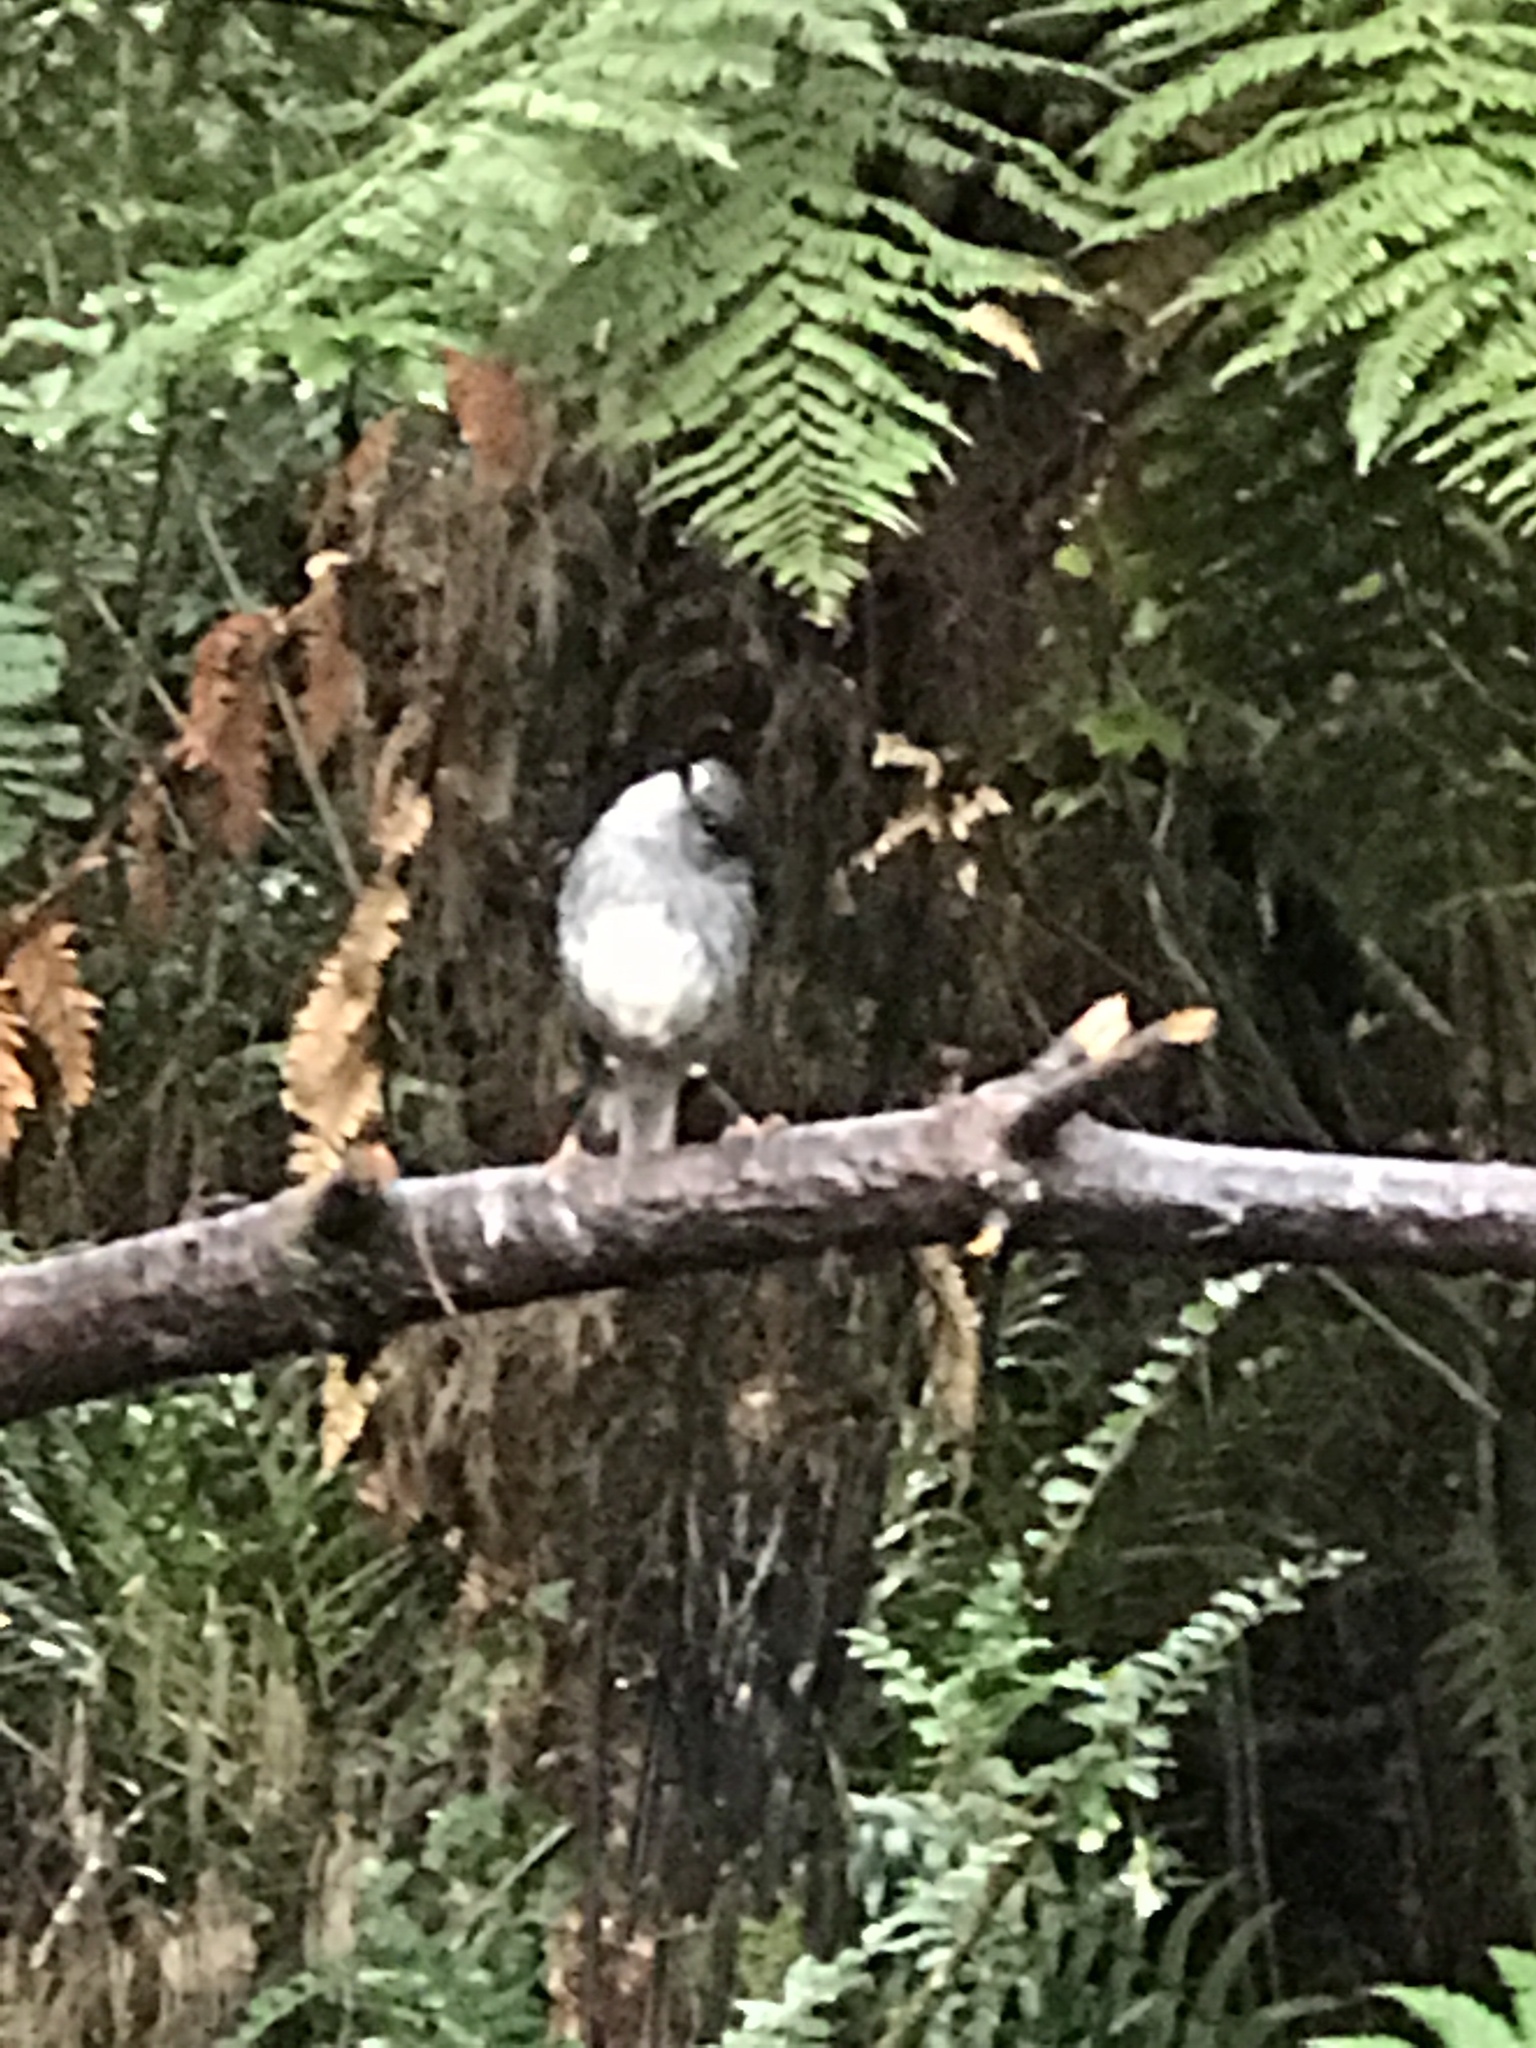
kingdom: Animalia
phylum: Chordata
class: Aves
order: Passeriformes
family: Petroicidae
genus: Petroica
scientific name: Petroica australis
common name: New zealand robin
